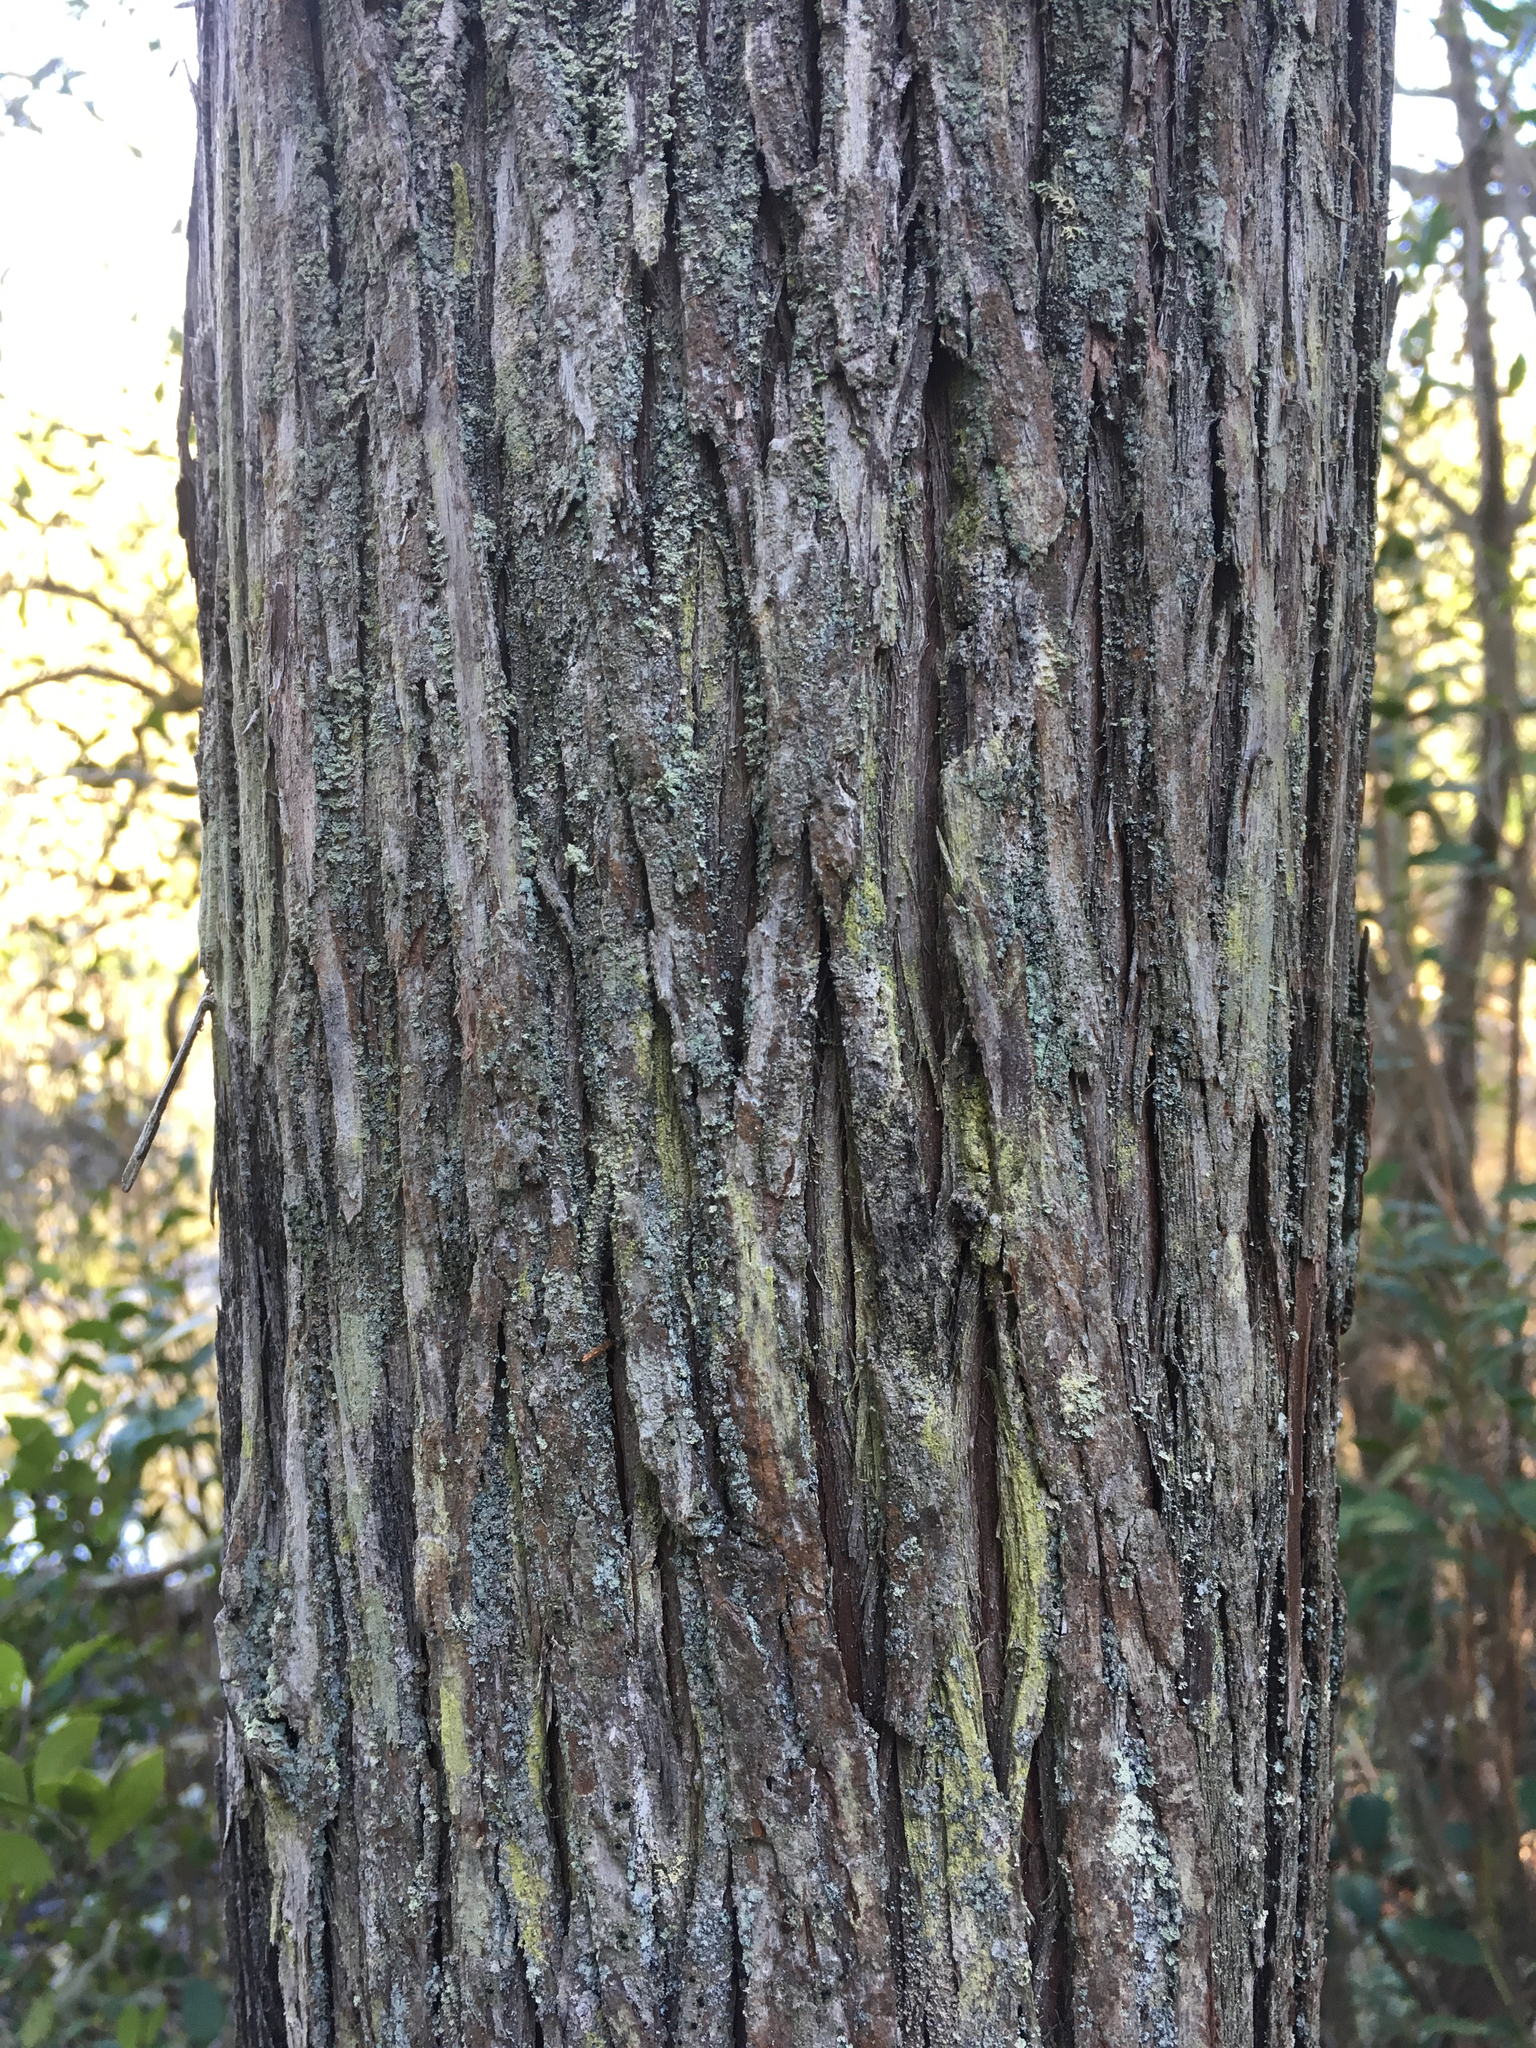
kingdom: Plantae
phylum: Tracheophyta
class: Pinopsida
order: Pinales
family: Cupressaceae
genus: Chamaecyparis
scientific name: Chamaecyparis thyoides
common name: Atlantic white cedar
